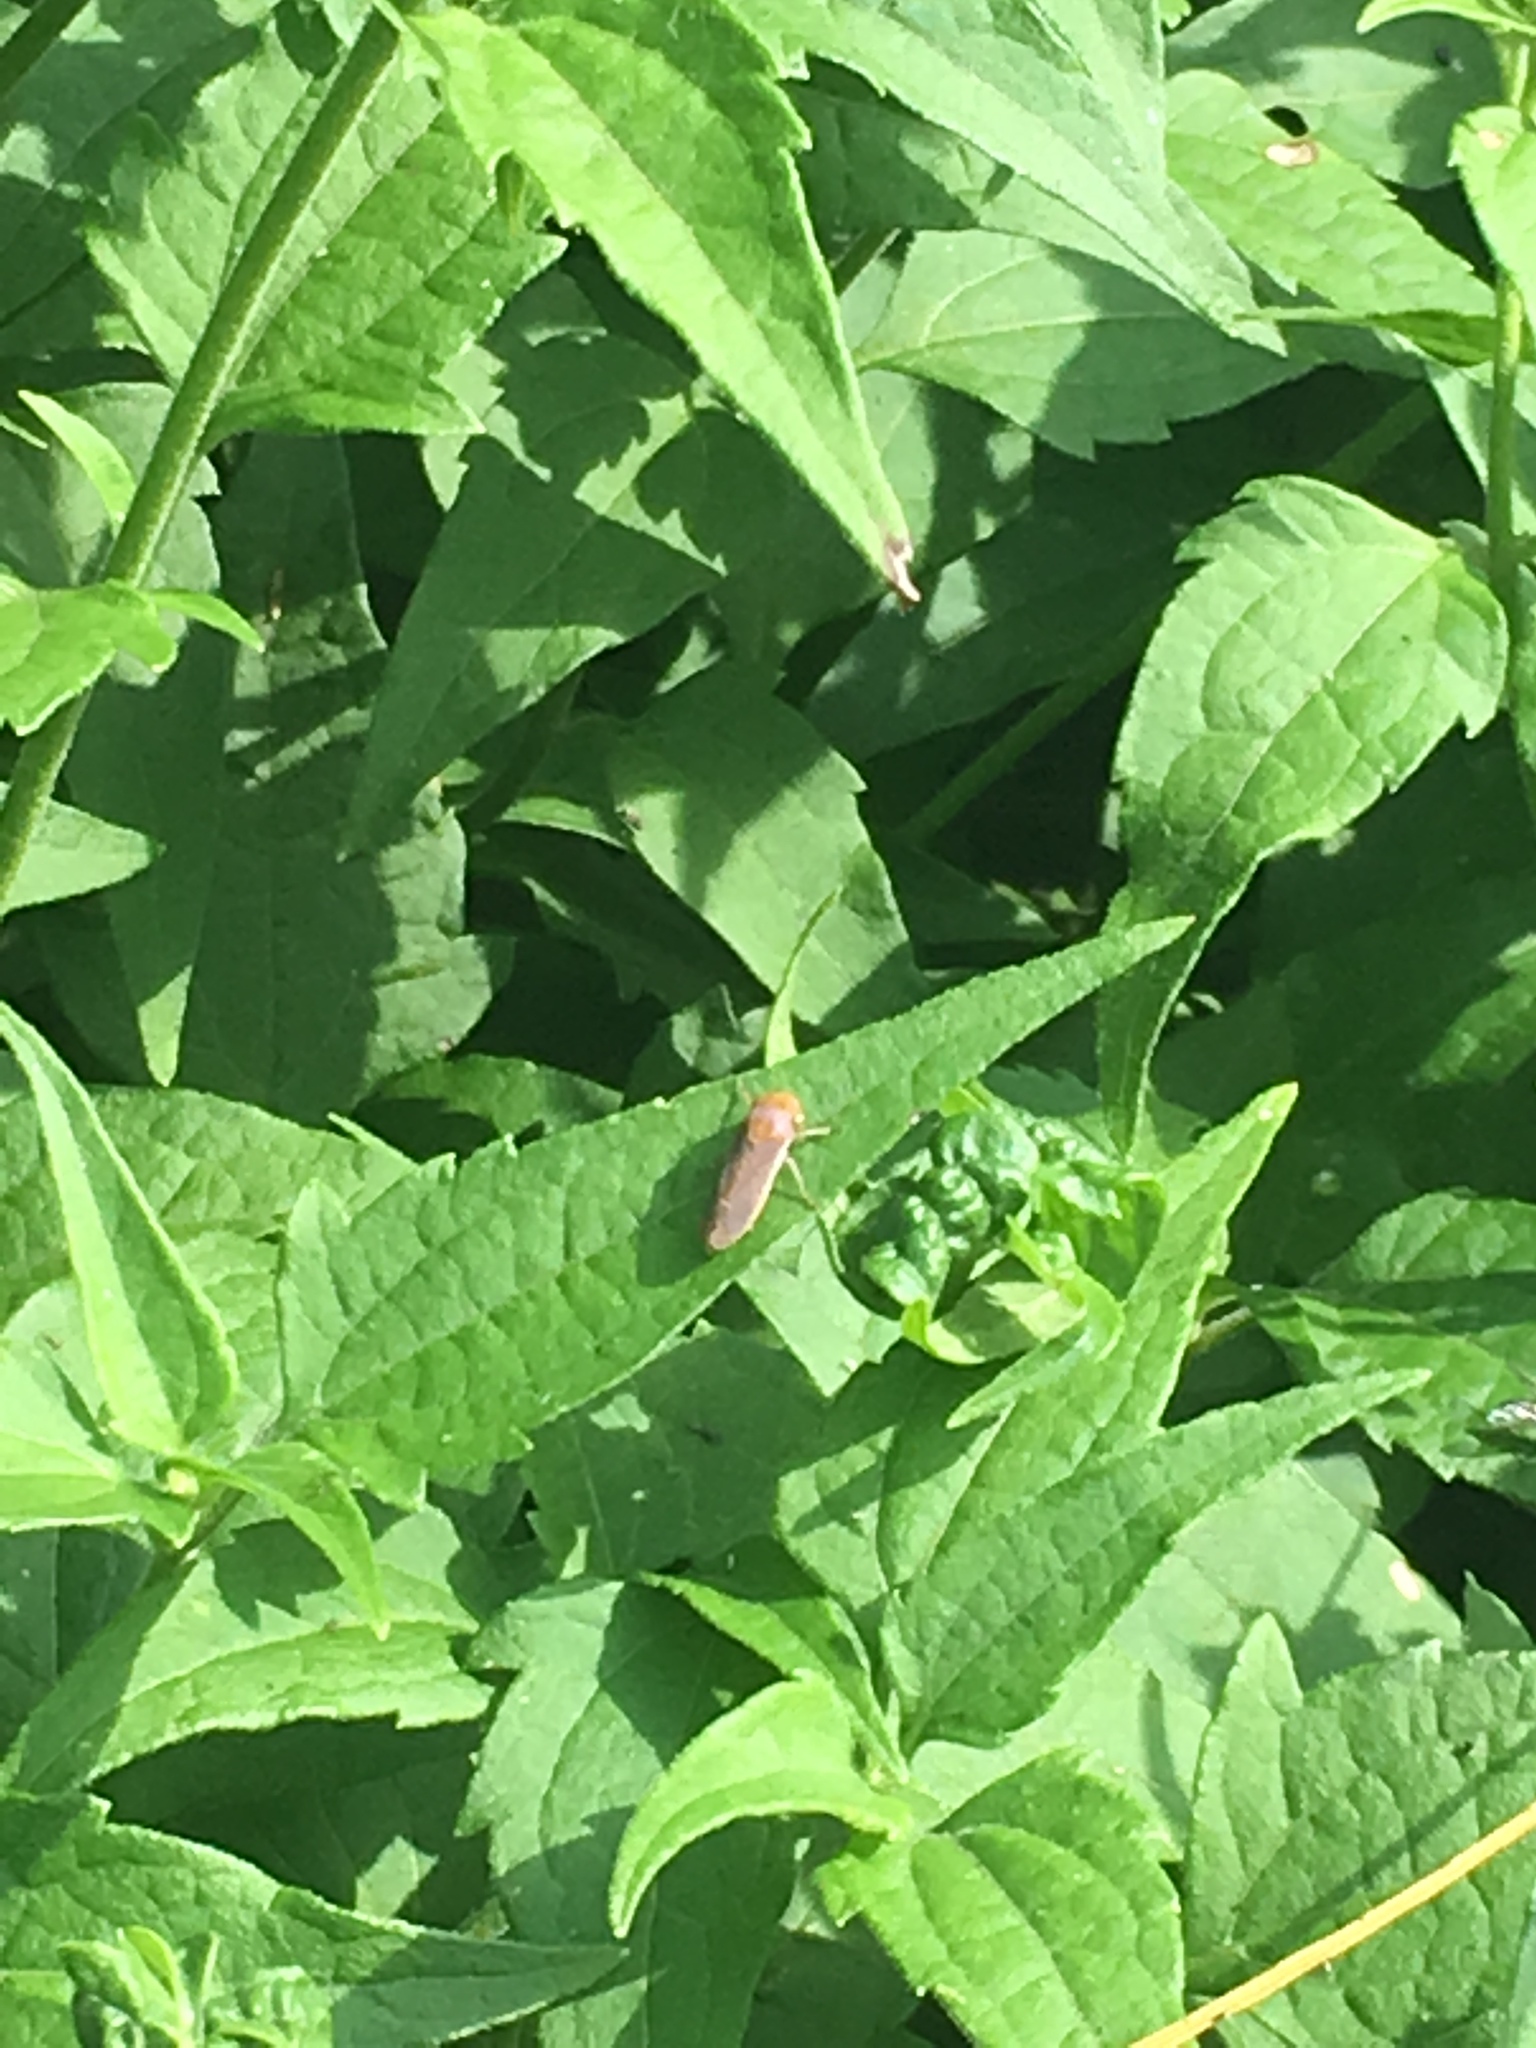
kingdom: Animalia
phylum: Arthropoda
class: Insecta
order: Hemiptera
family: Cicadellidae
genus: Oncometopia
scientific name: Oncometopia hamiltoni
